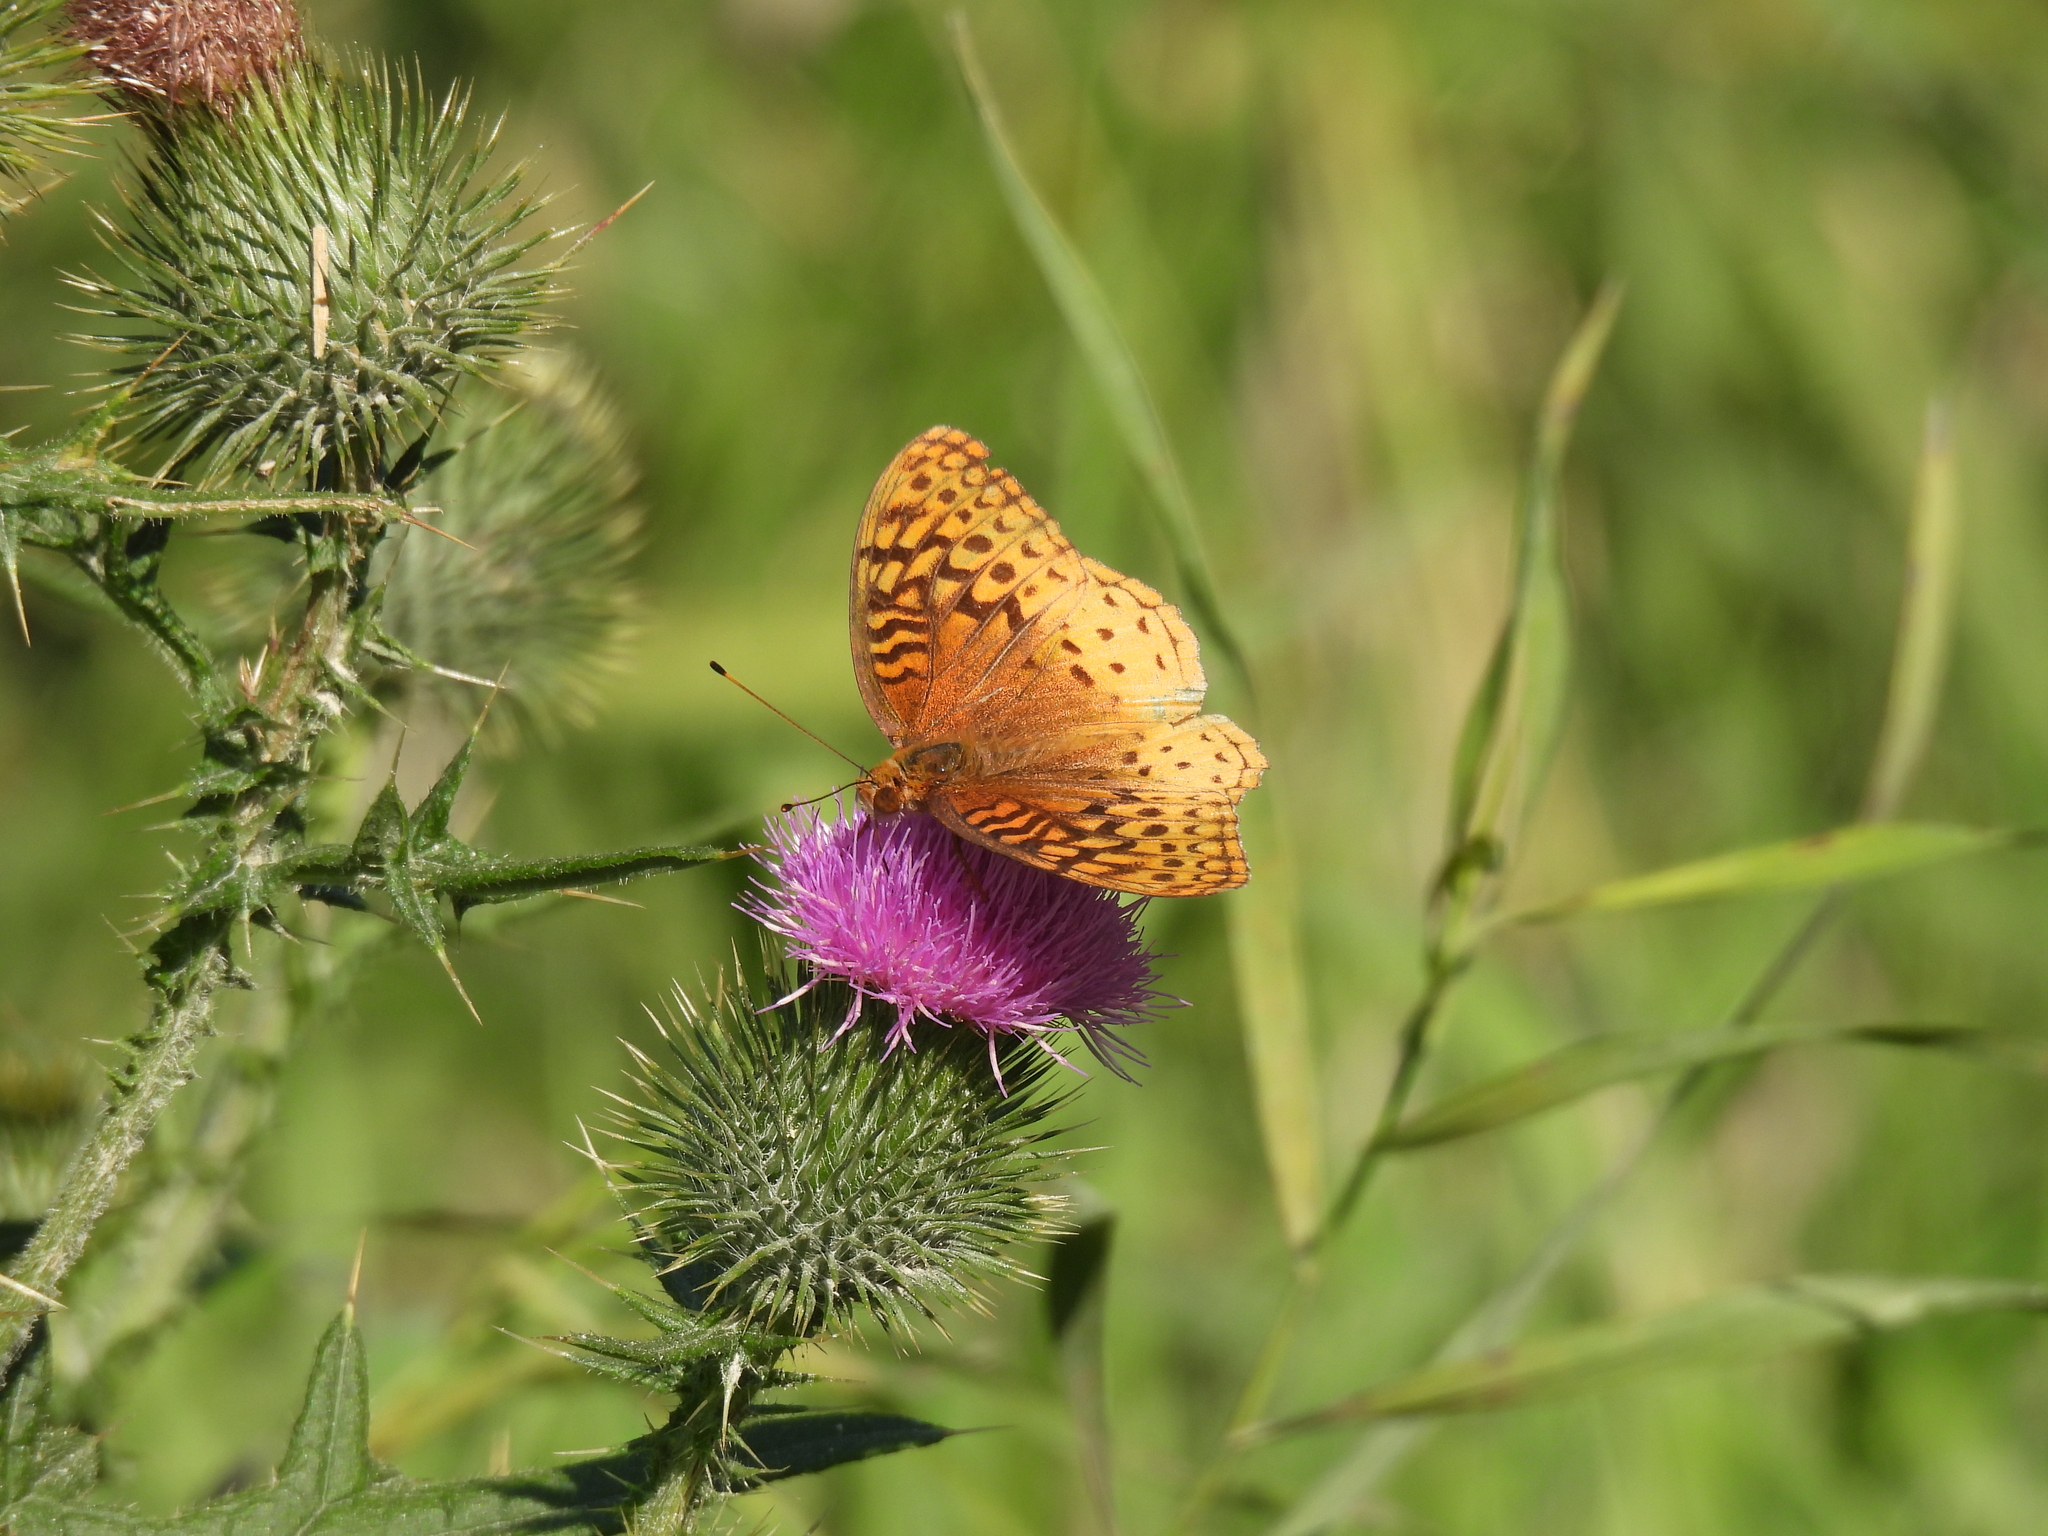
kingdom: Animalia
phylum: Arthropoda
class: Insecta
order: Lepidoptera
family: Nymphalidae
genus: Speyeria
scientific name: Speyeria cybele
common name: Great spangled fritillary
